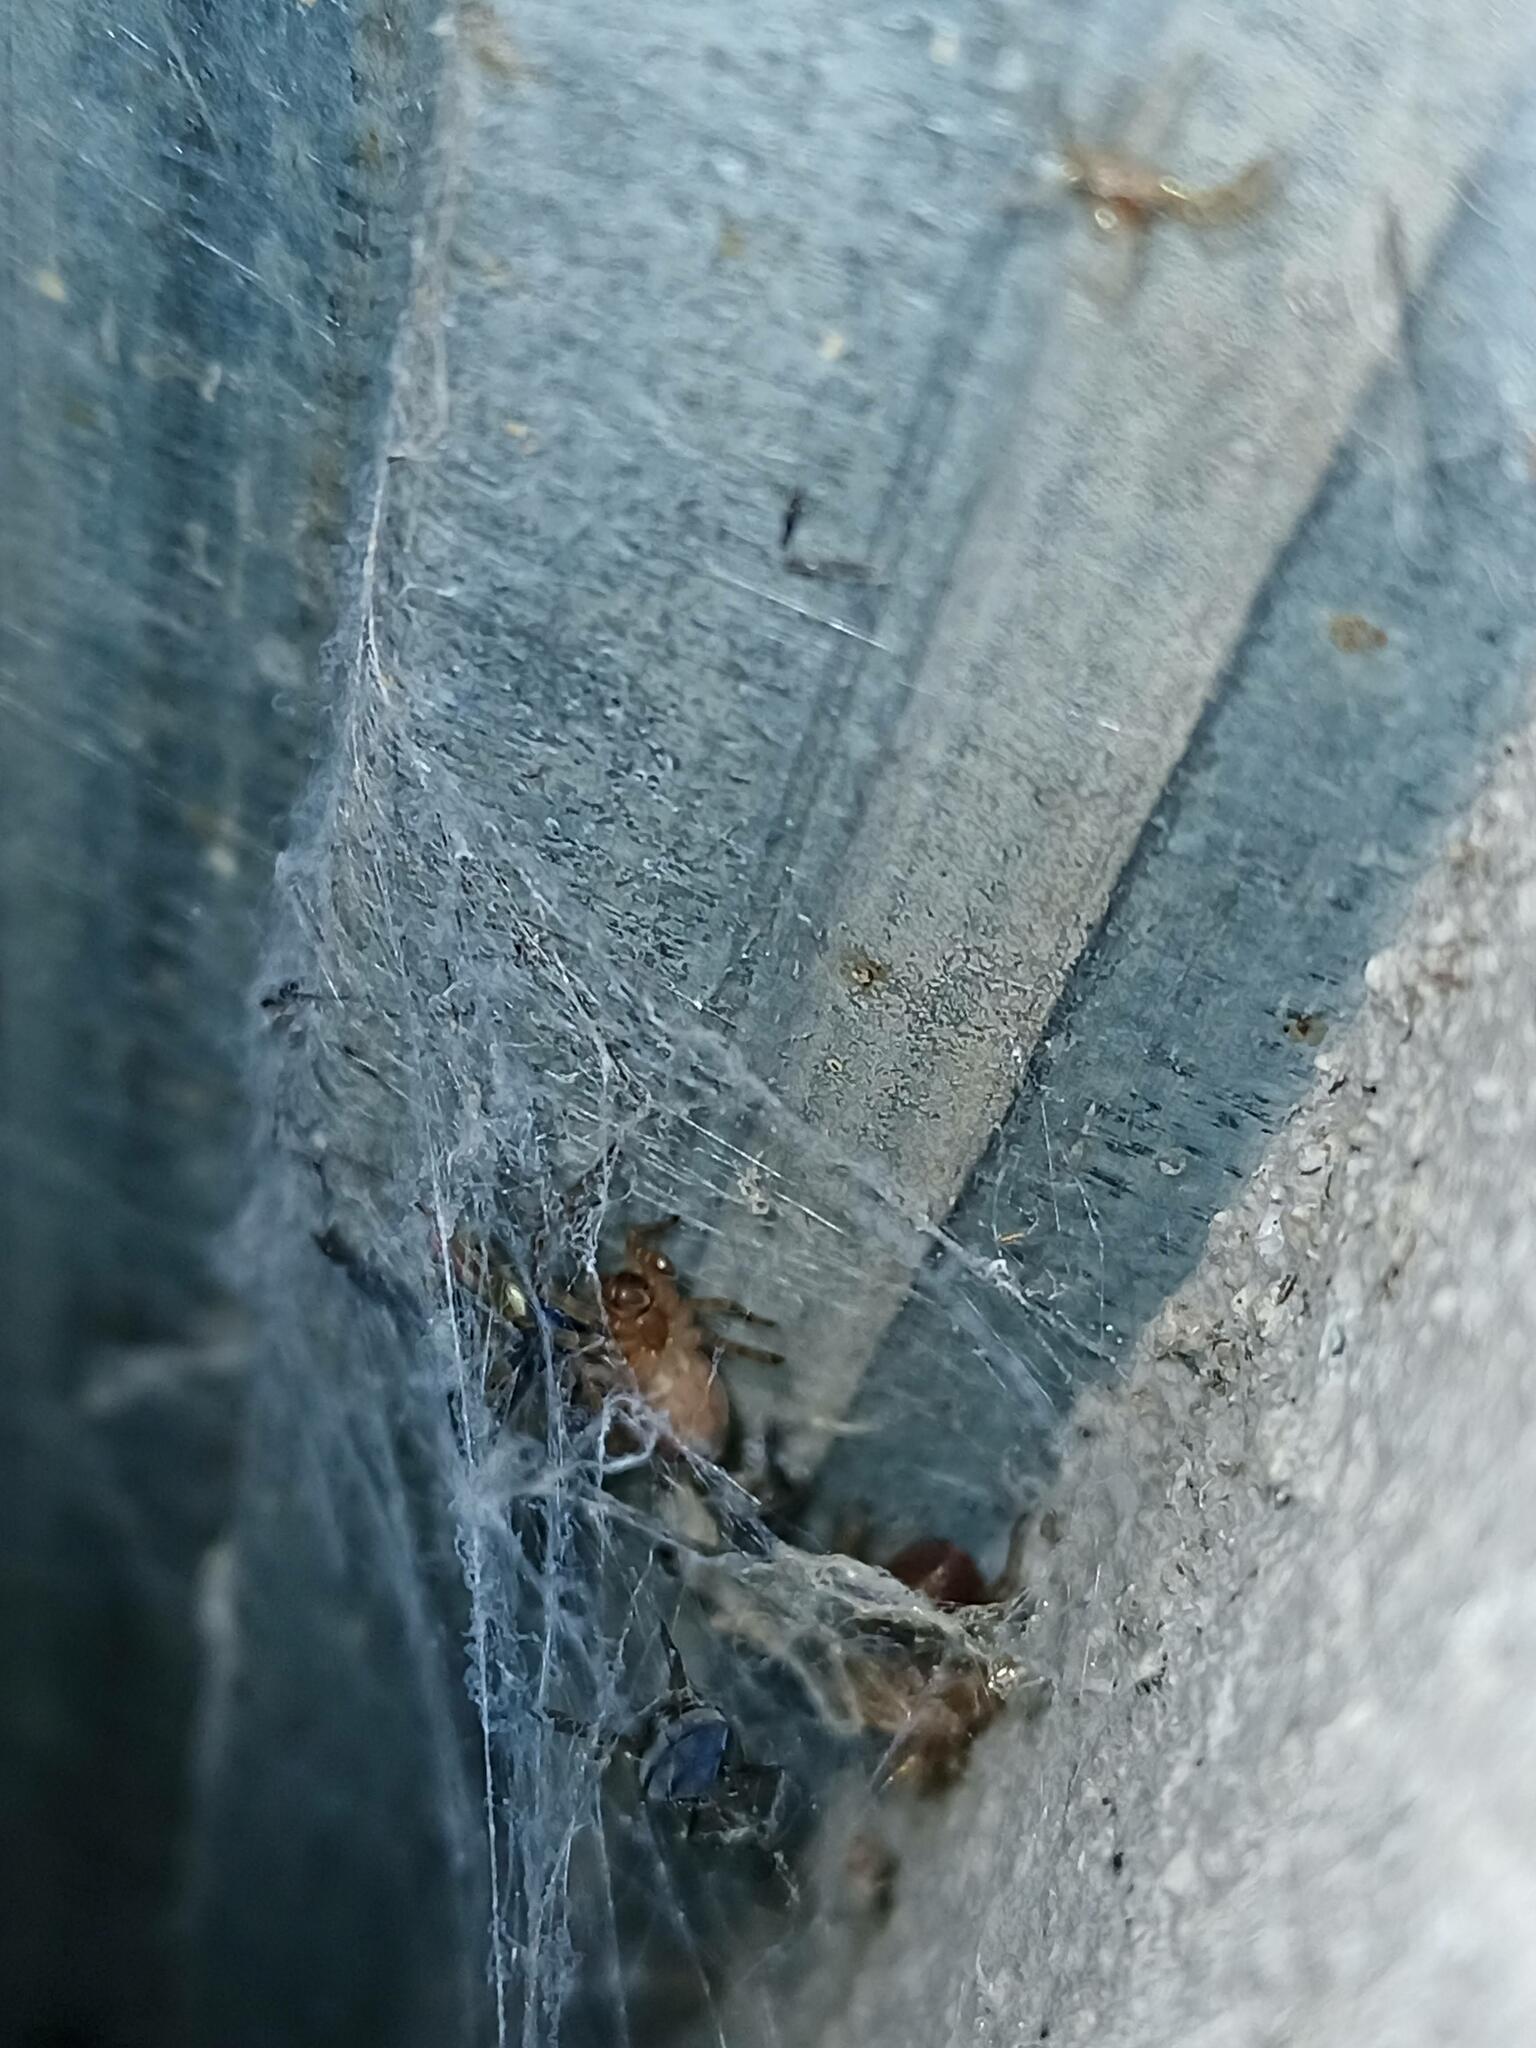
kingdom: Animalia
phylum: Arthropoda
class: Arachnida
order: Araneae
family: Amaurobiidae
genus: Amaurobius
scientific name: Amaurobius similis
